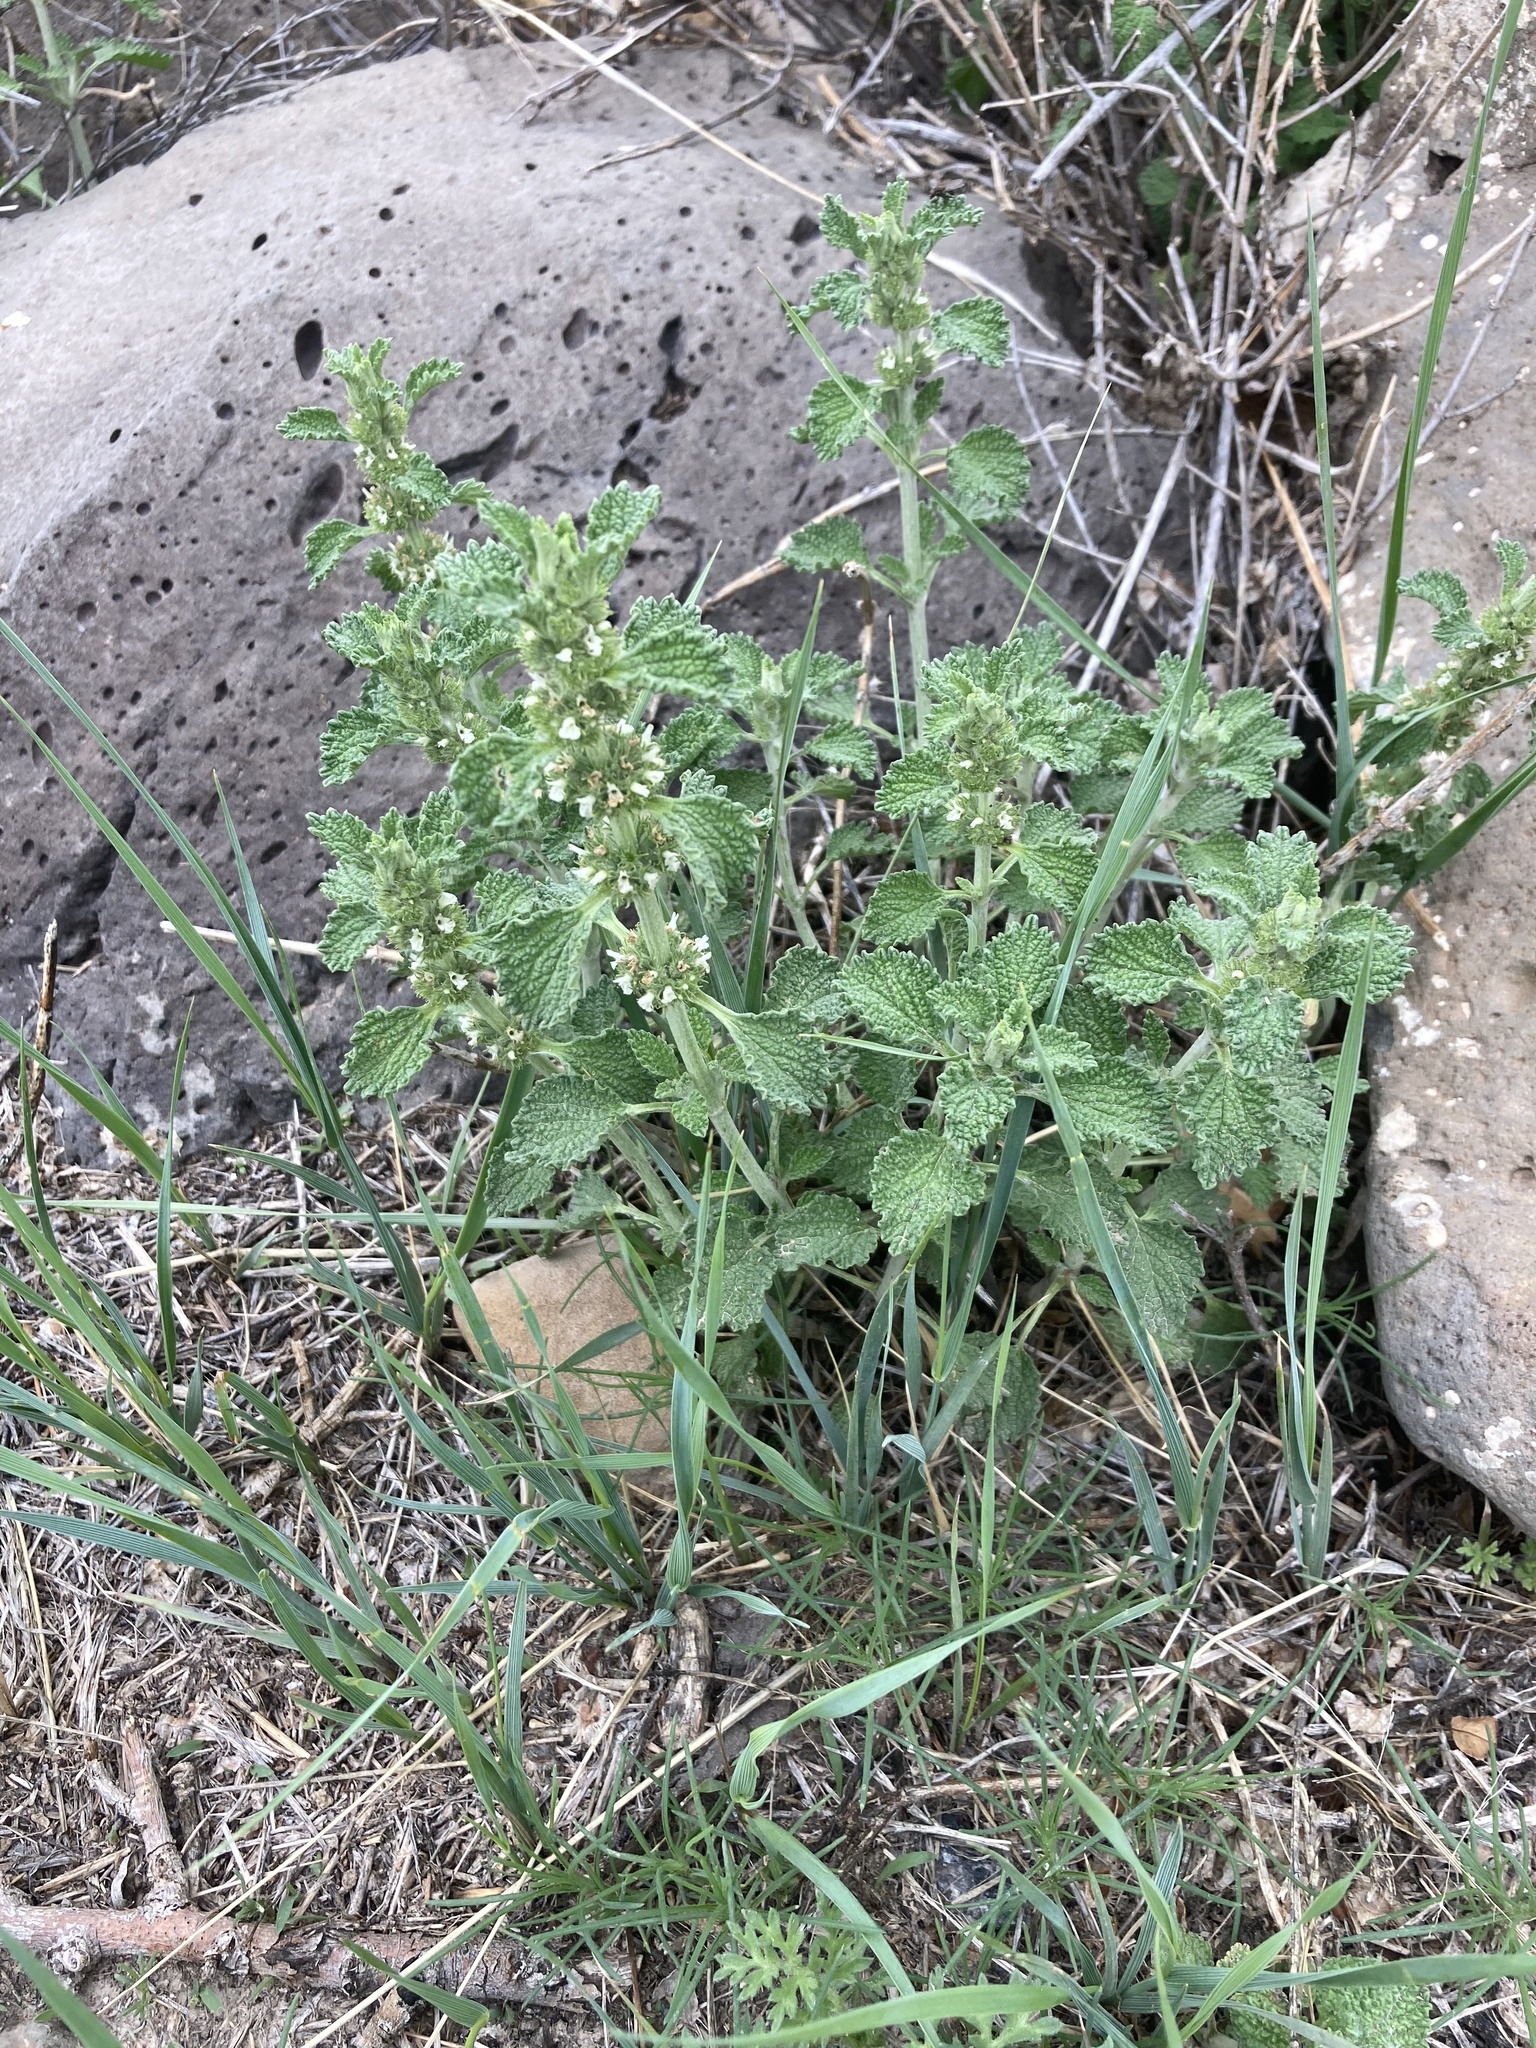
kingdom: Plantae
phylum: Tracheophyta
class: Magnoliopsida
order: Lamiales
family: Lamiaceae
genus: Marrubium
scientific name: Marrubium vulgare
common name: Horehound
